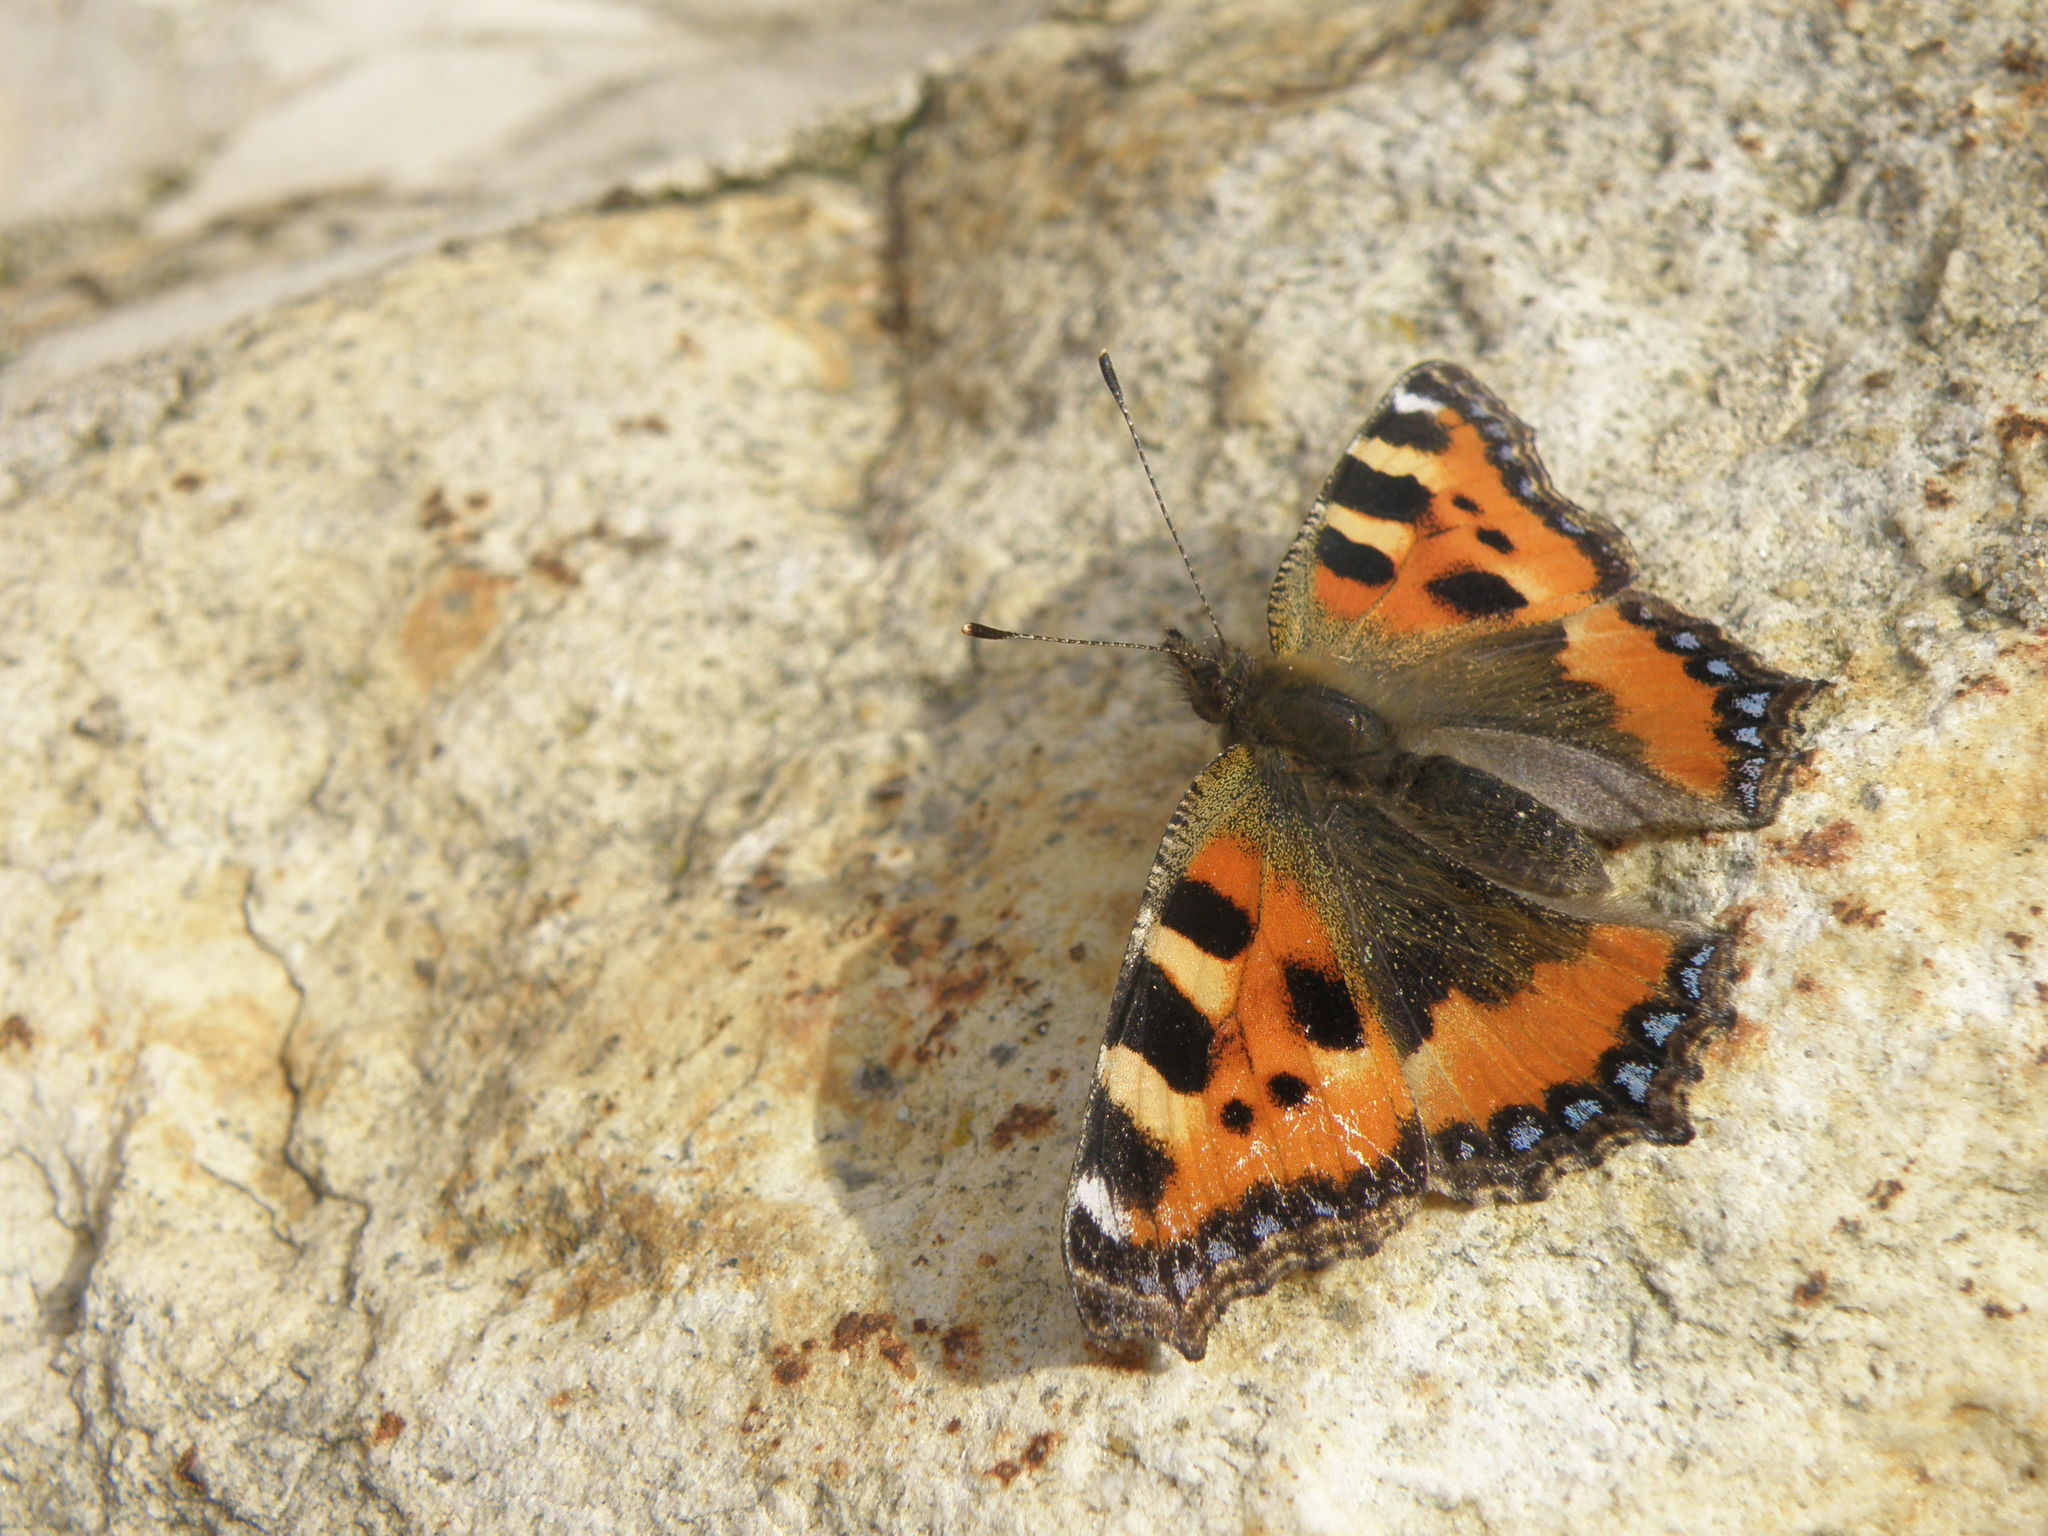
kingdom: Animalia
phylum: Arthropoda
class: Insecta
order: Lepidoptera
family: Nymphalidae
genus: Aglais
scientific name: Aglais urticae
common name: Small tortoiseshell
